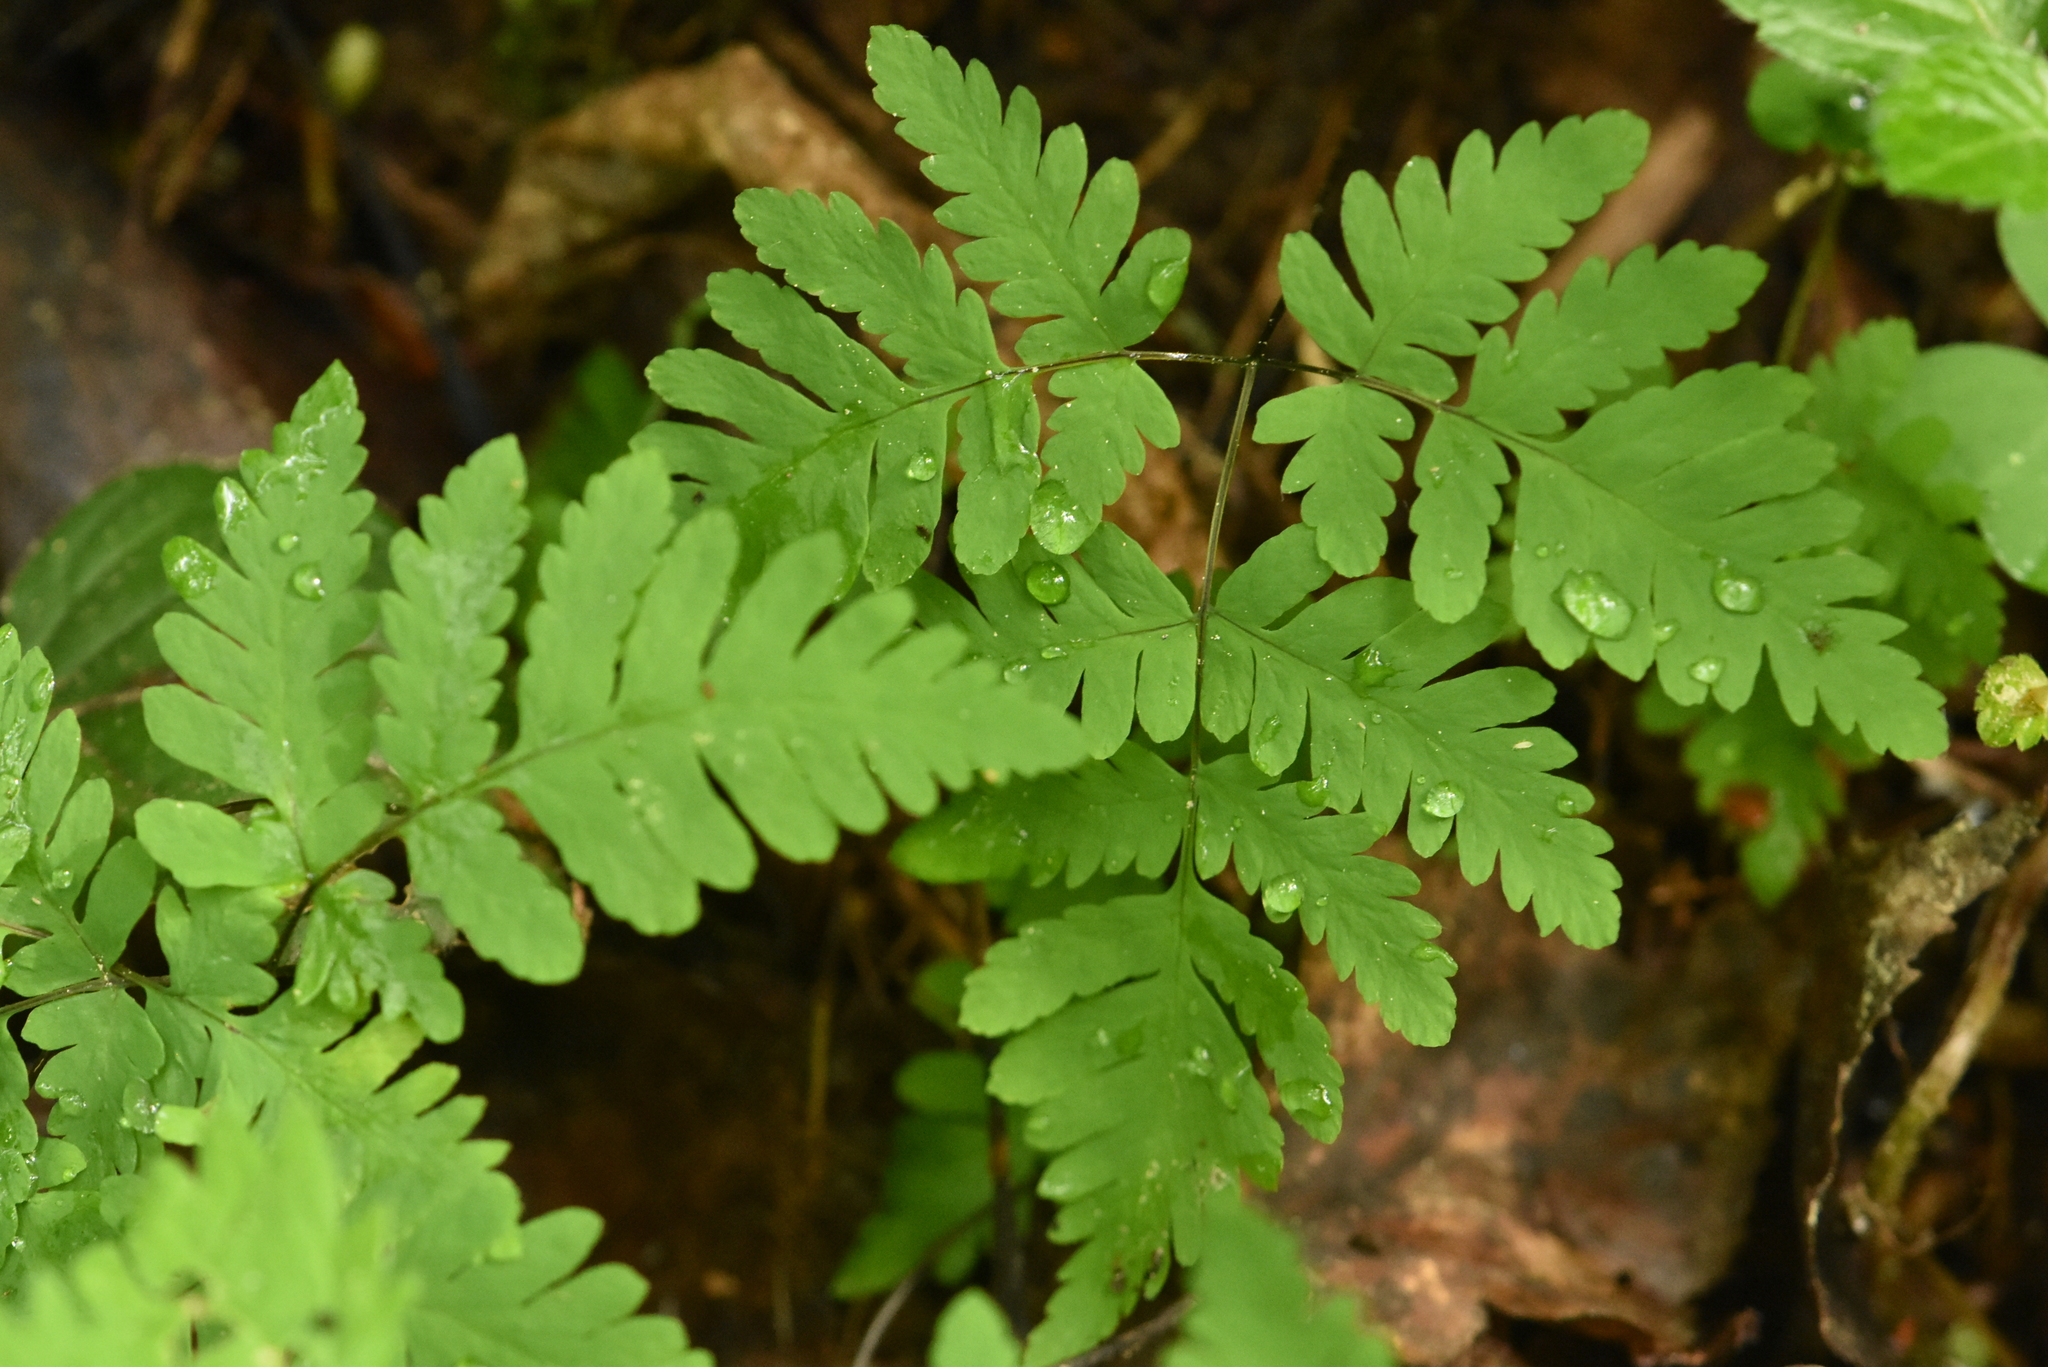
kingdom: Plantae
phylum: Tracheophyta
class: Polypodiopsida
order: Polypodiales
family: Cystopteridaceae
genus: Gymnocarpium
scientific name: Gymnocarpium dryopteris
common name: Oak fern
